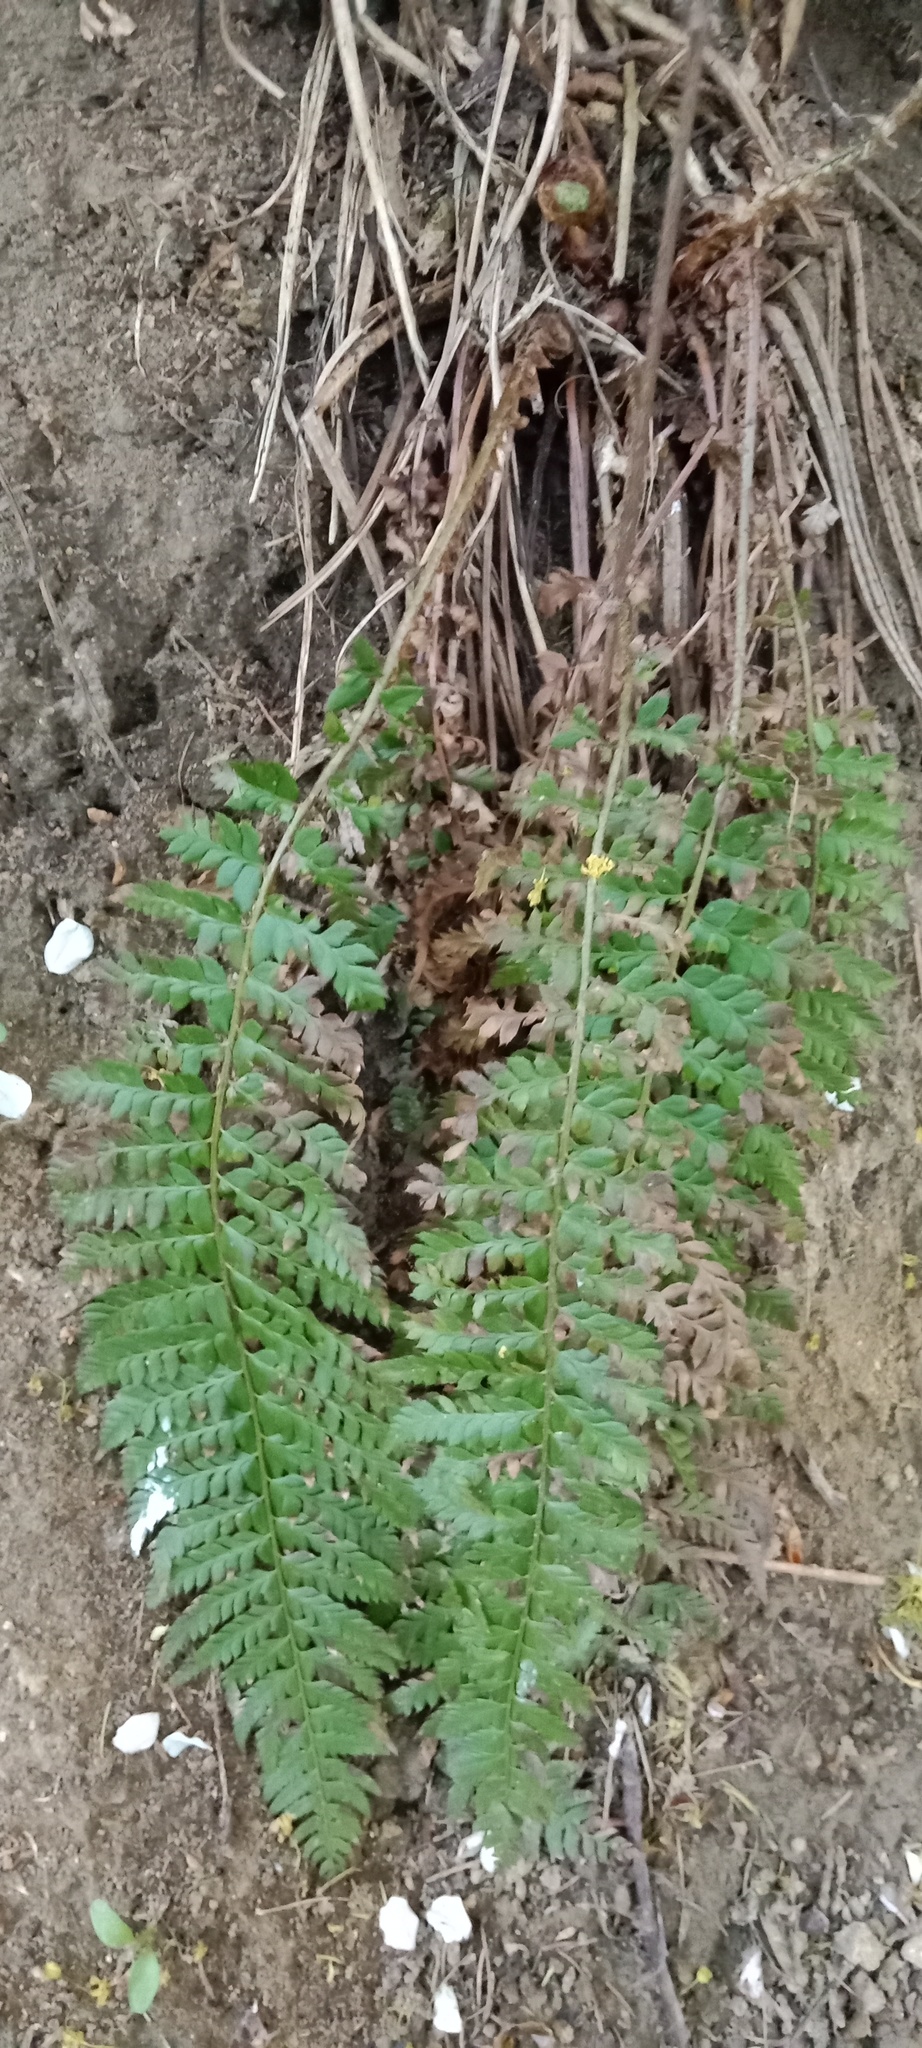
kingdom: Plantae
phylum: Tracheophyta
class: Polypodiopsida
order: Polypodiales
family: Dryopteridaceae
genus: Polystichum
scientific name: Polystichum aculeatum
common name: Hard shield-fern
